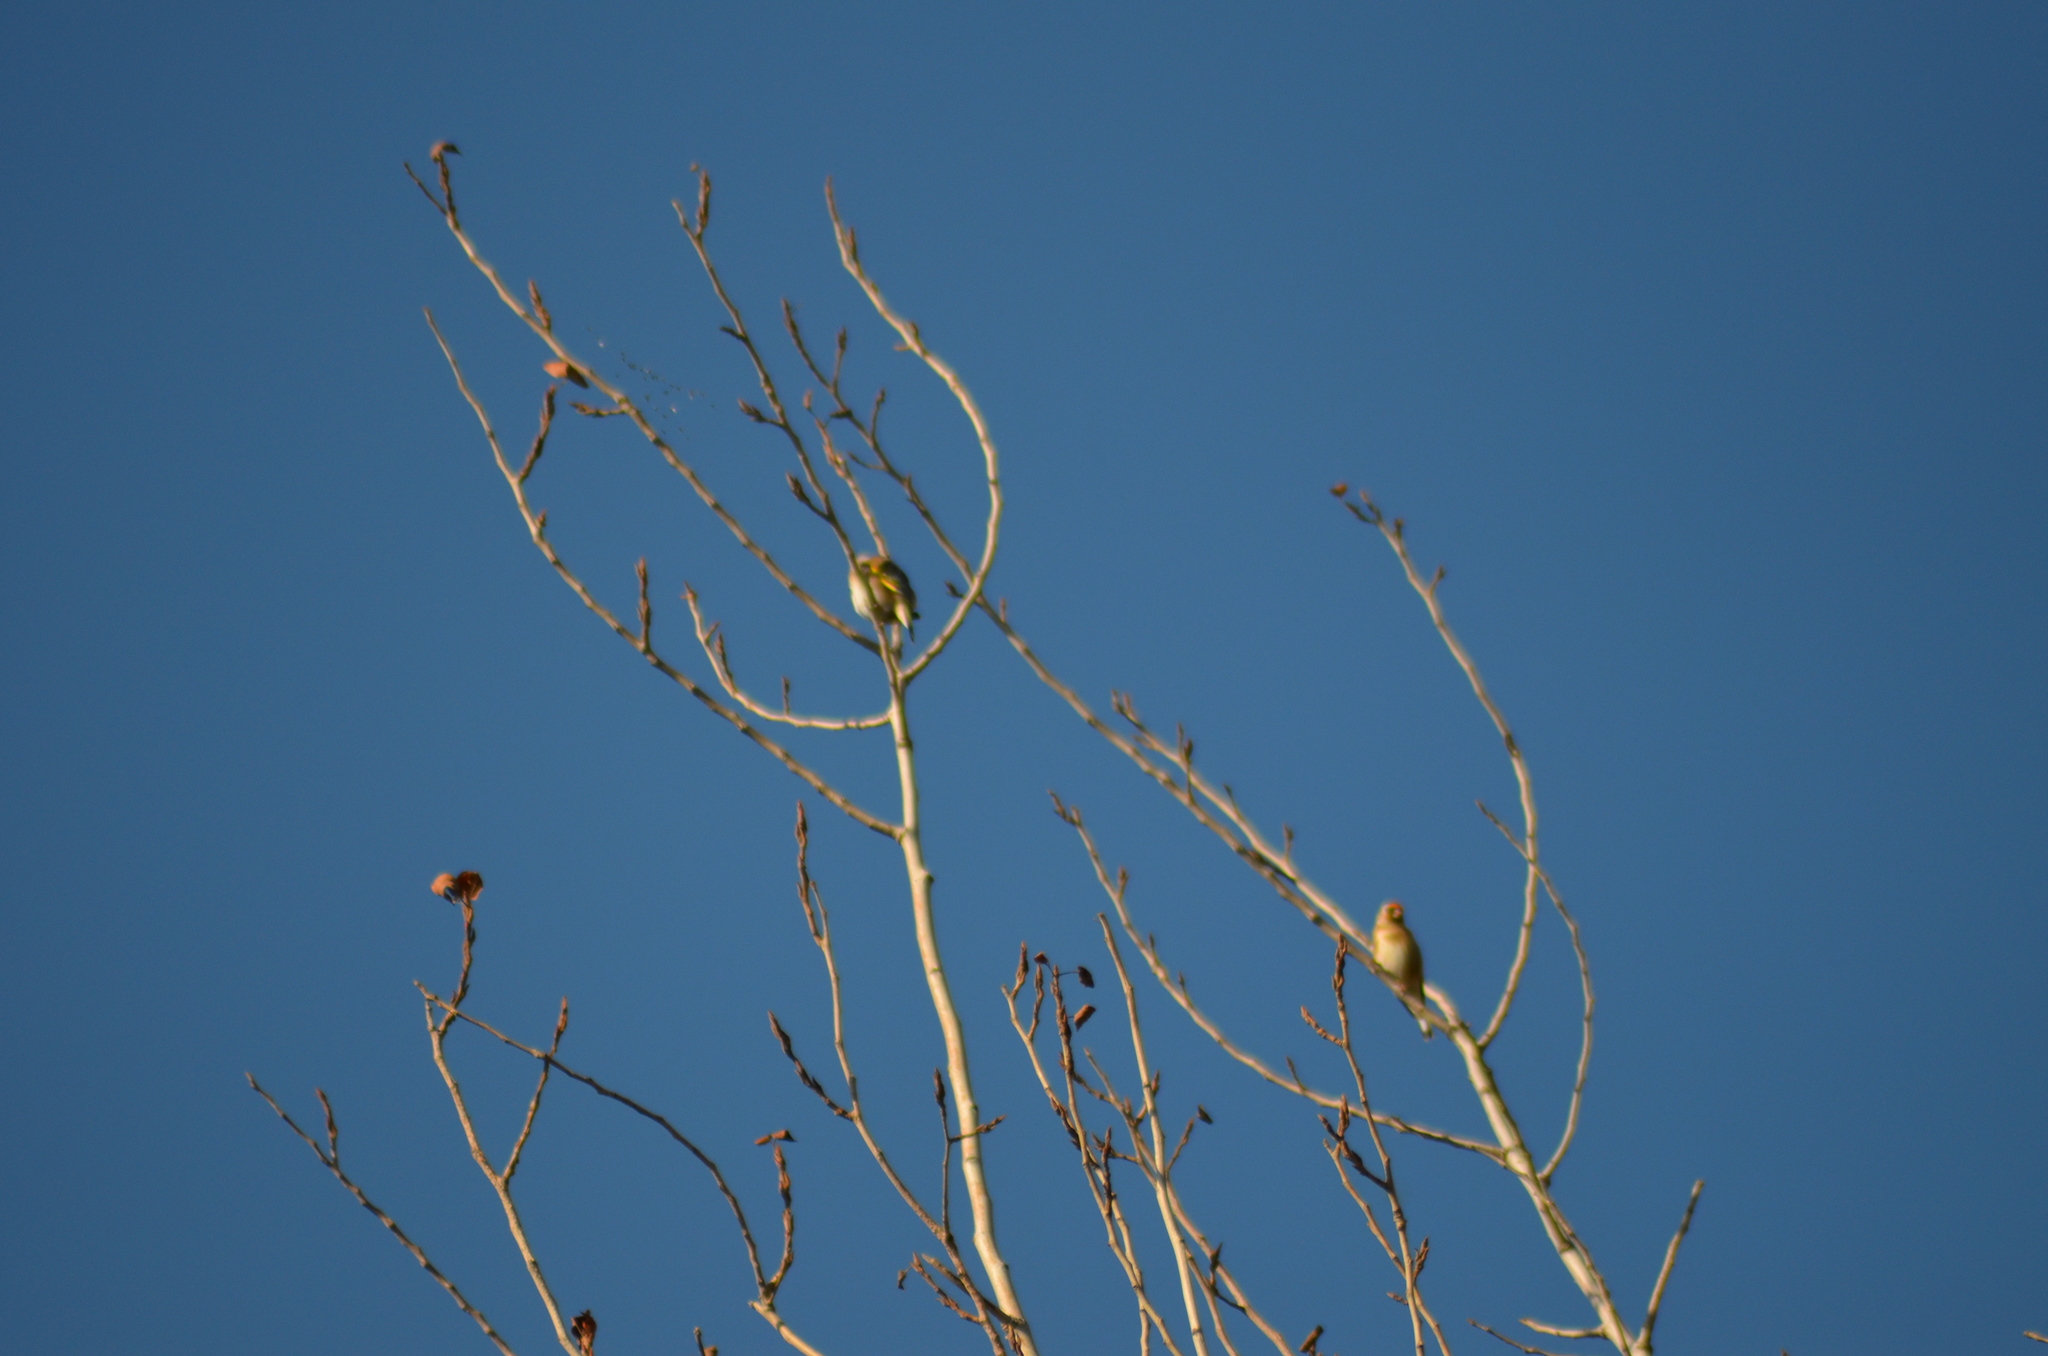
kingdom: Animalia
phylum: Chordata
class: Aves
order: Passeriformes
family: Fringillidae
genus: Carduelis
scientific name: Carduelis carduelis
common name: European goldfinch
